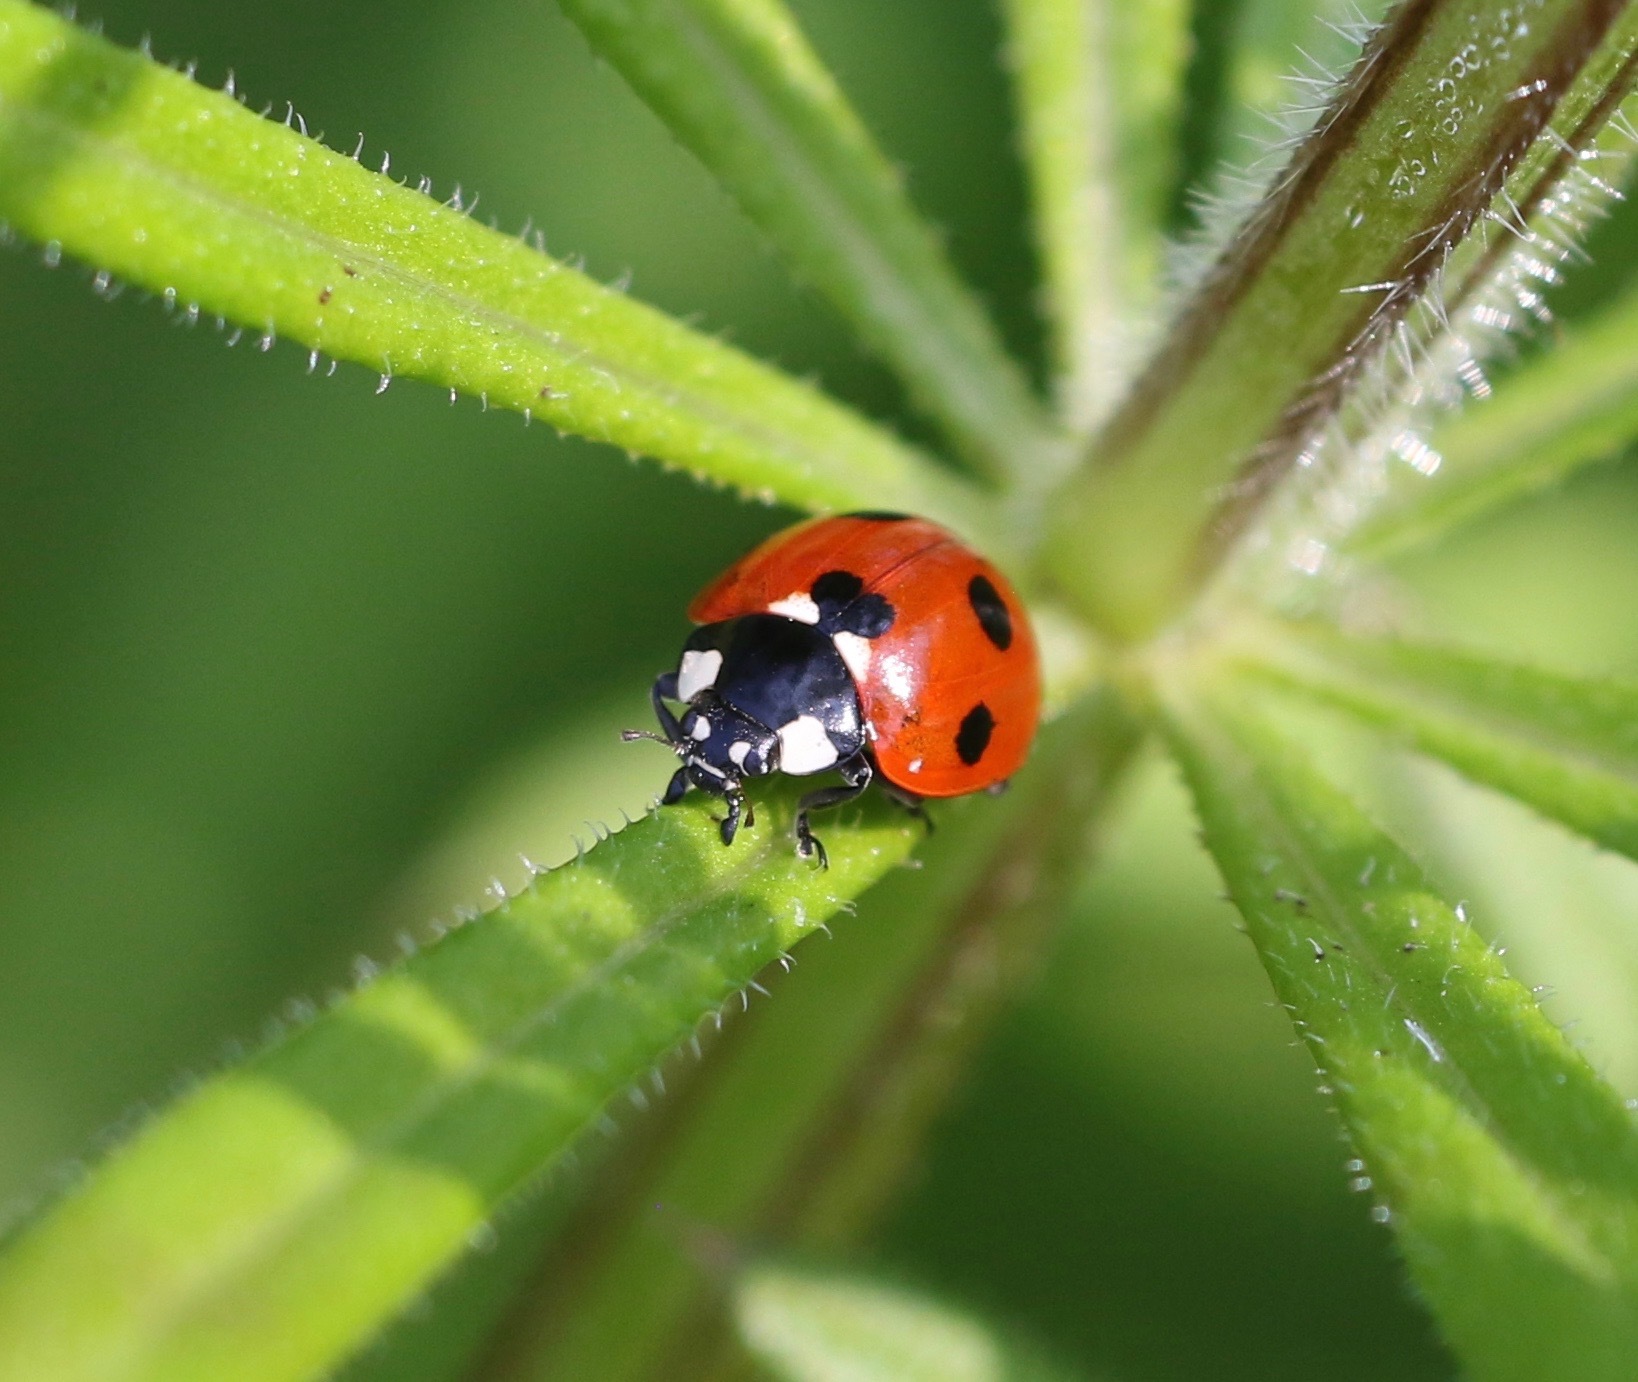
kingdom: Animalia
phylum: Arthropoda
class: Insecta
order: Coleoptera
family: Coccinellidae
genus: Coccinella
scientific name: Coccinella septempunctata
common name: Sevenspotted lady beetle
